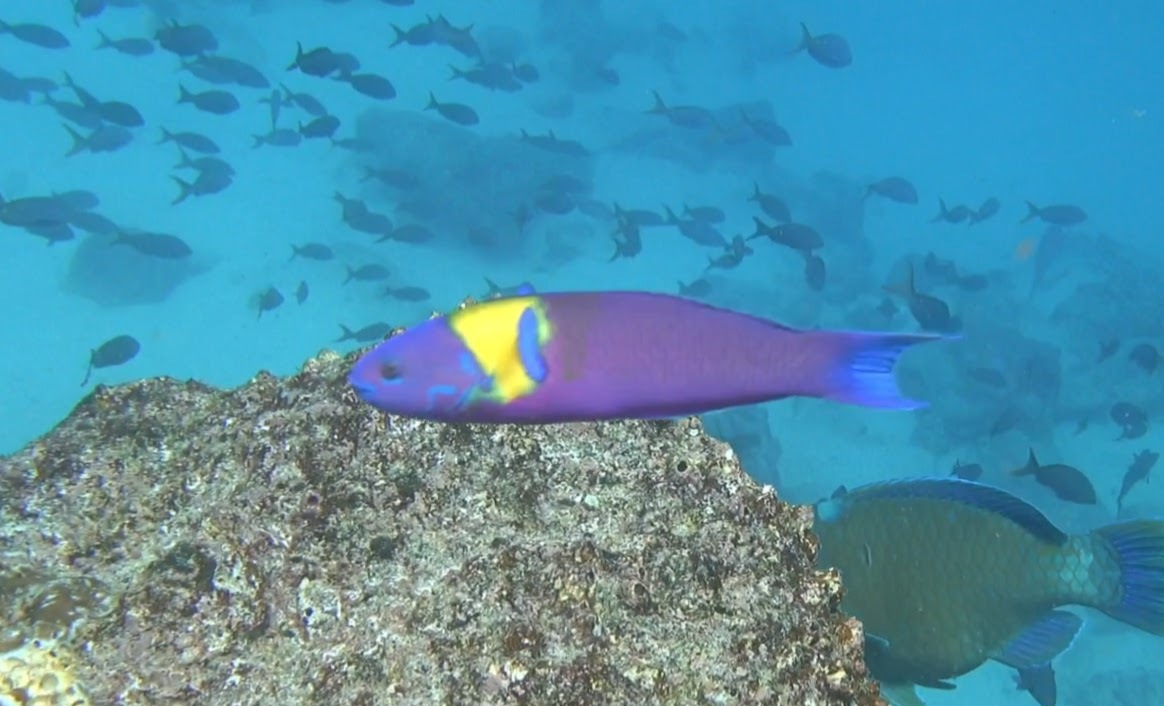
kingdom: Animalia
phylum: Chordata
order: Perciformes
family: Labridae
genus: Thalassoma
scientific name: Thalassoma lucasanum
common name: Cortez rainbow wrasse
